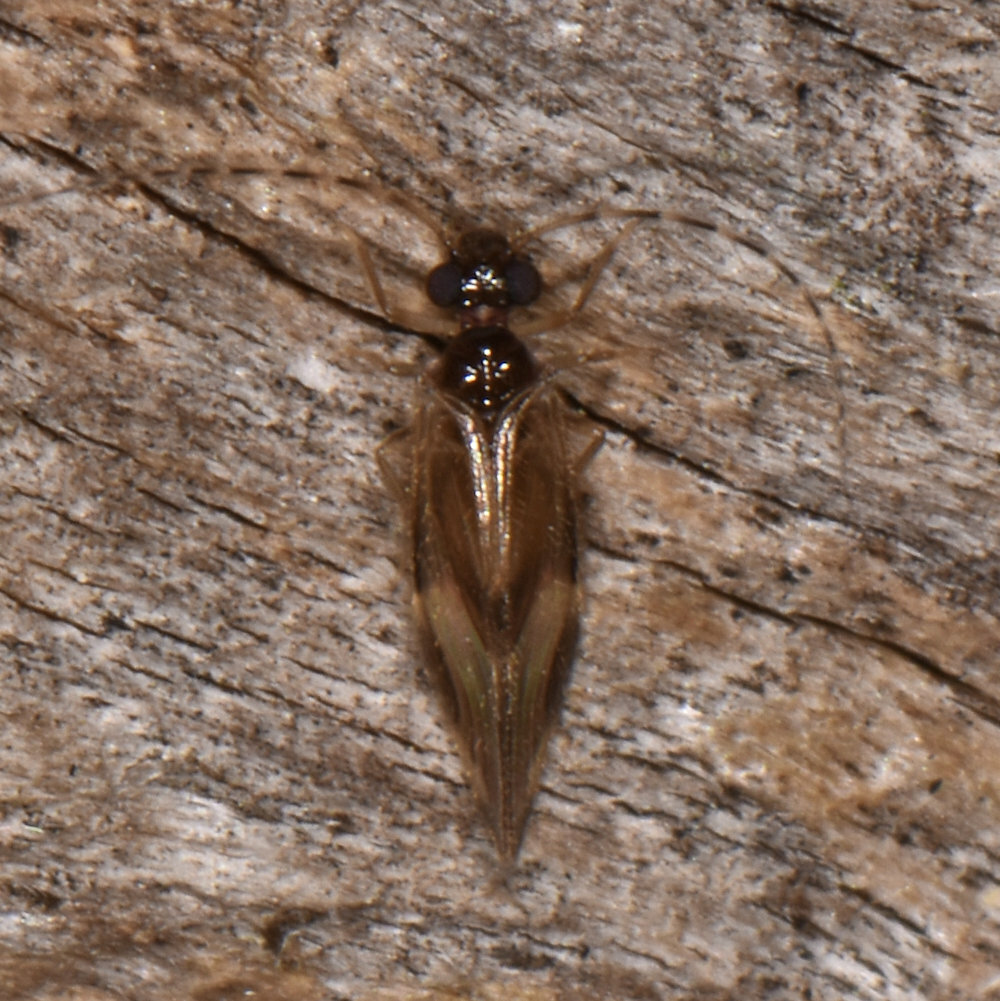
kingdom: Animalia
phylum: Arthropoda
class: Insecta
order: Psocodea
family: Amphipsocidae
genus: Polypsocus
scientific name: Polypsocus corruptus
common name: Corrupt barklouse
